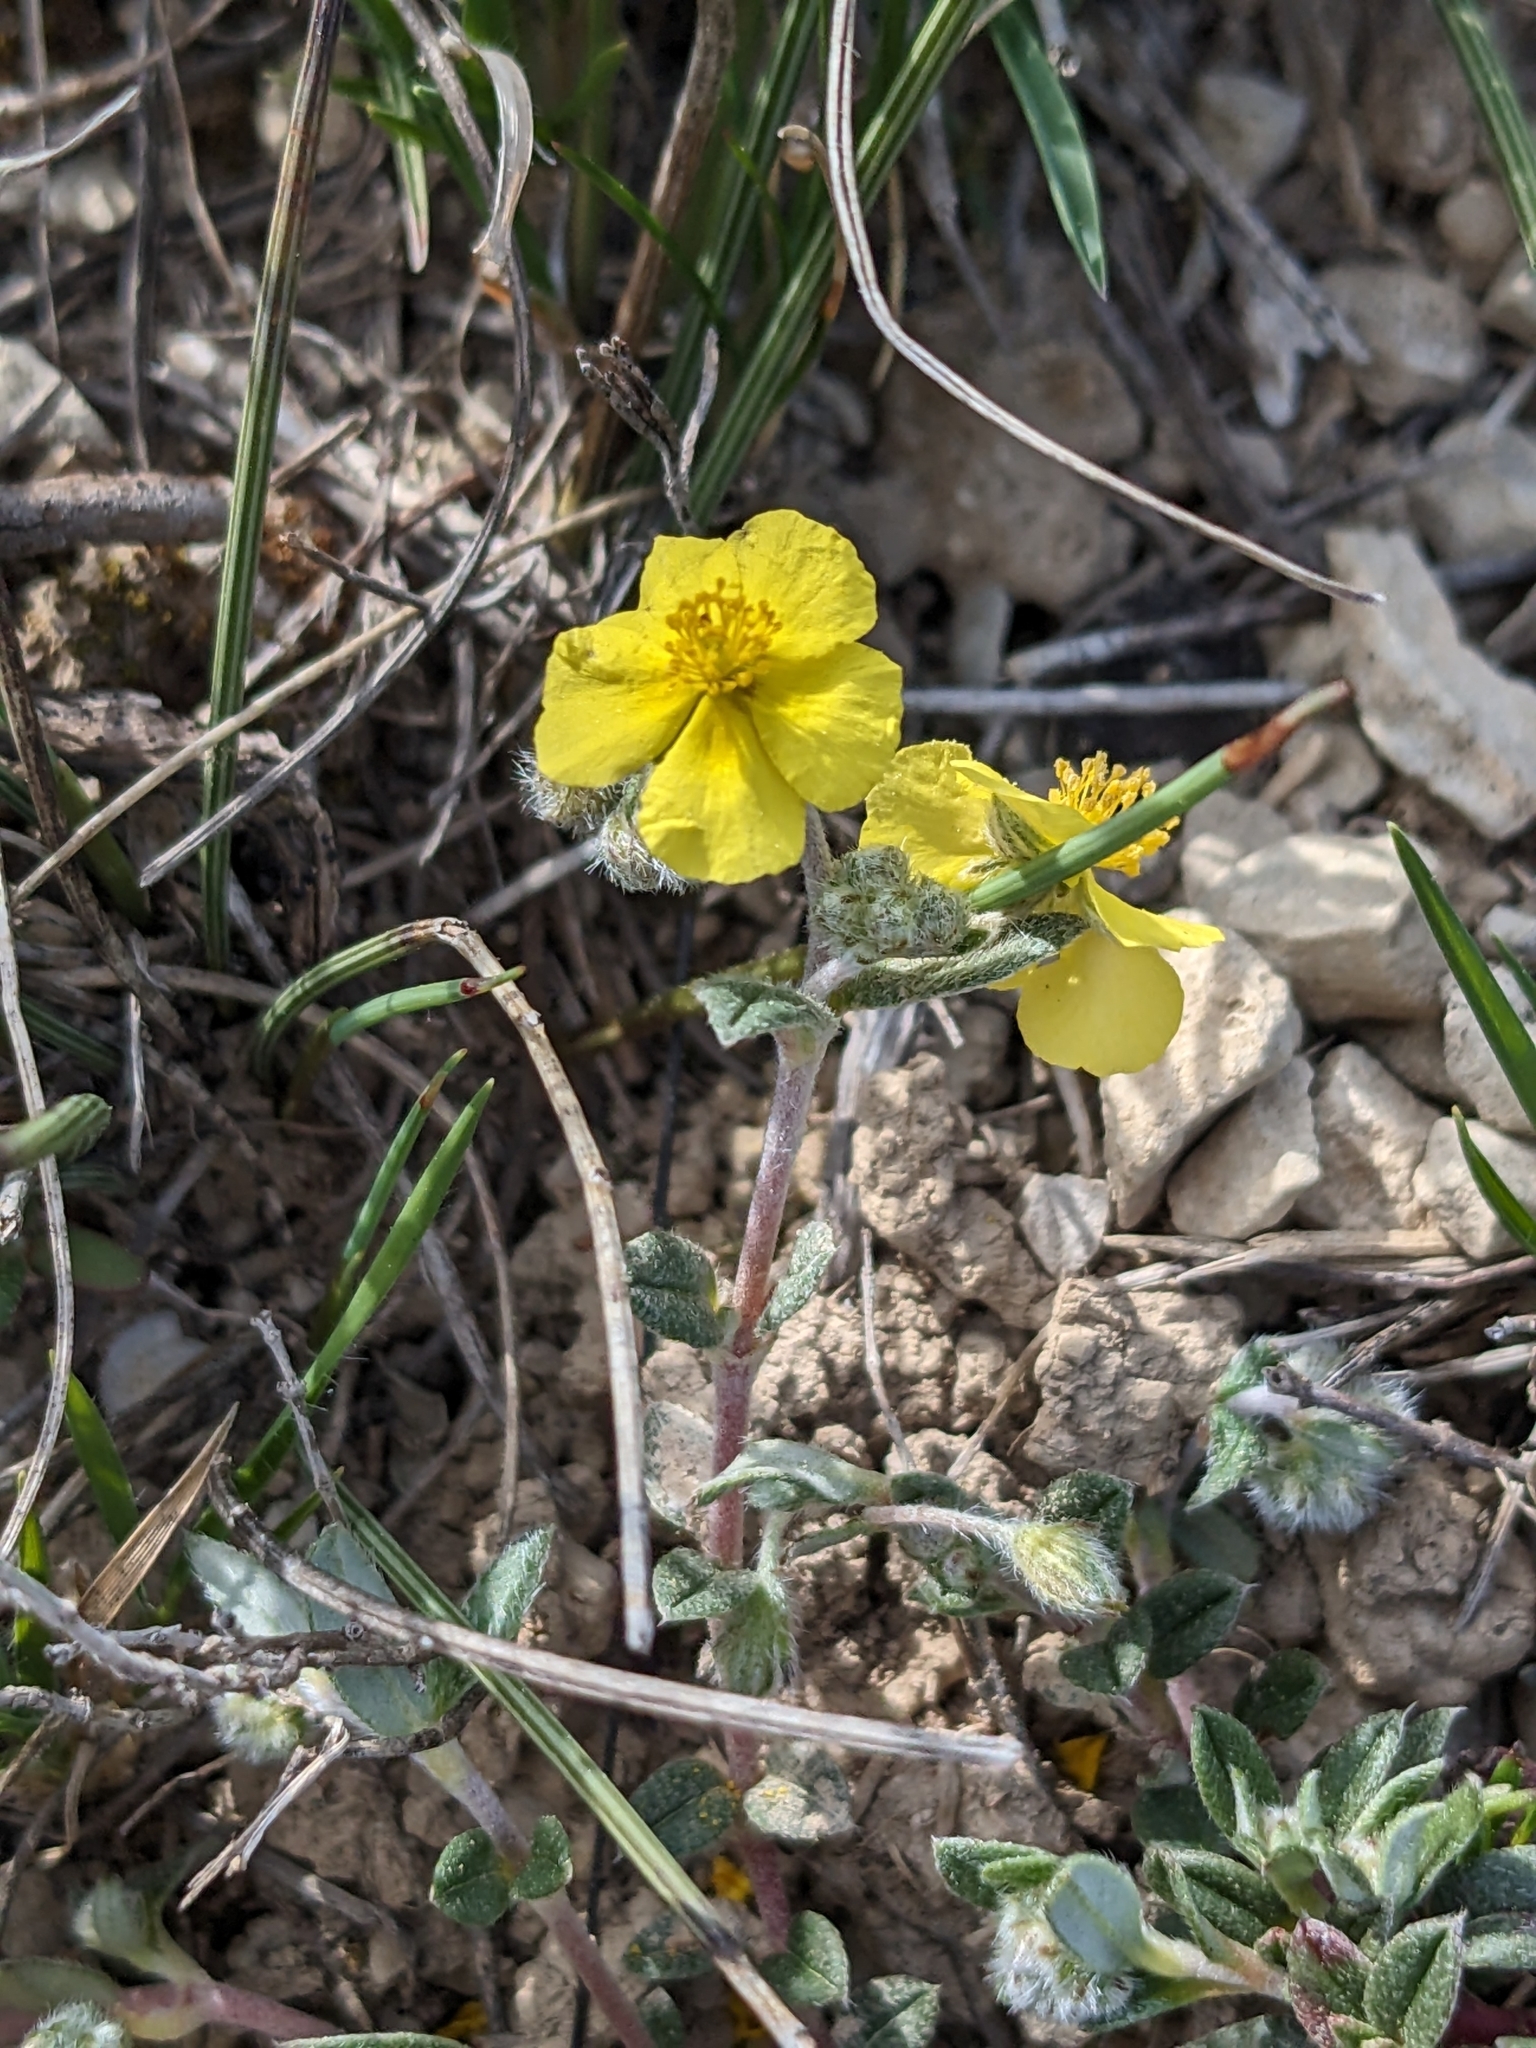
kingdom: Plantae
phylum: Tracheophyta
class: Magnoliopsida
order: Malvales
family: Cistaceae
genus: Helianthemum
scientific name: Helianthemum oelandicum
